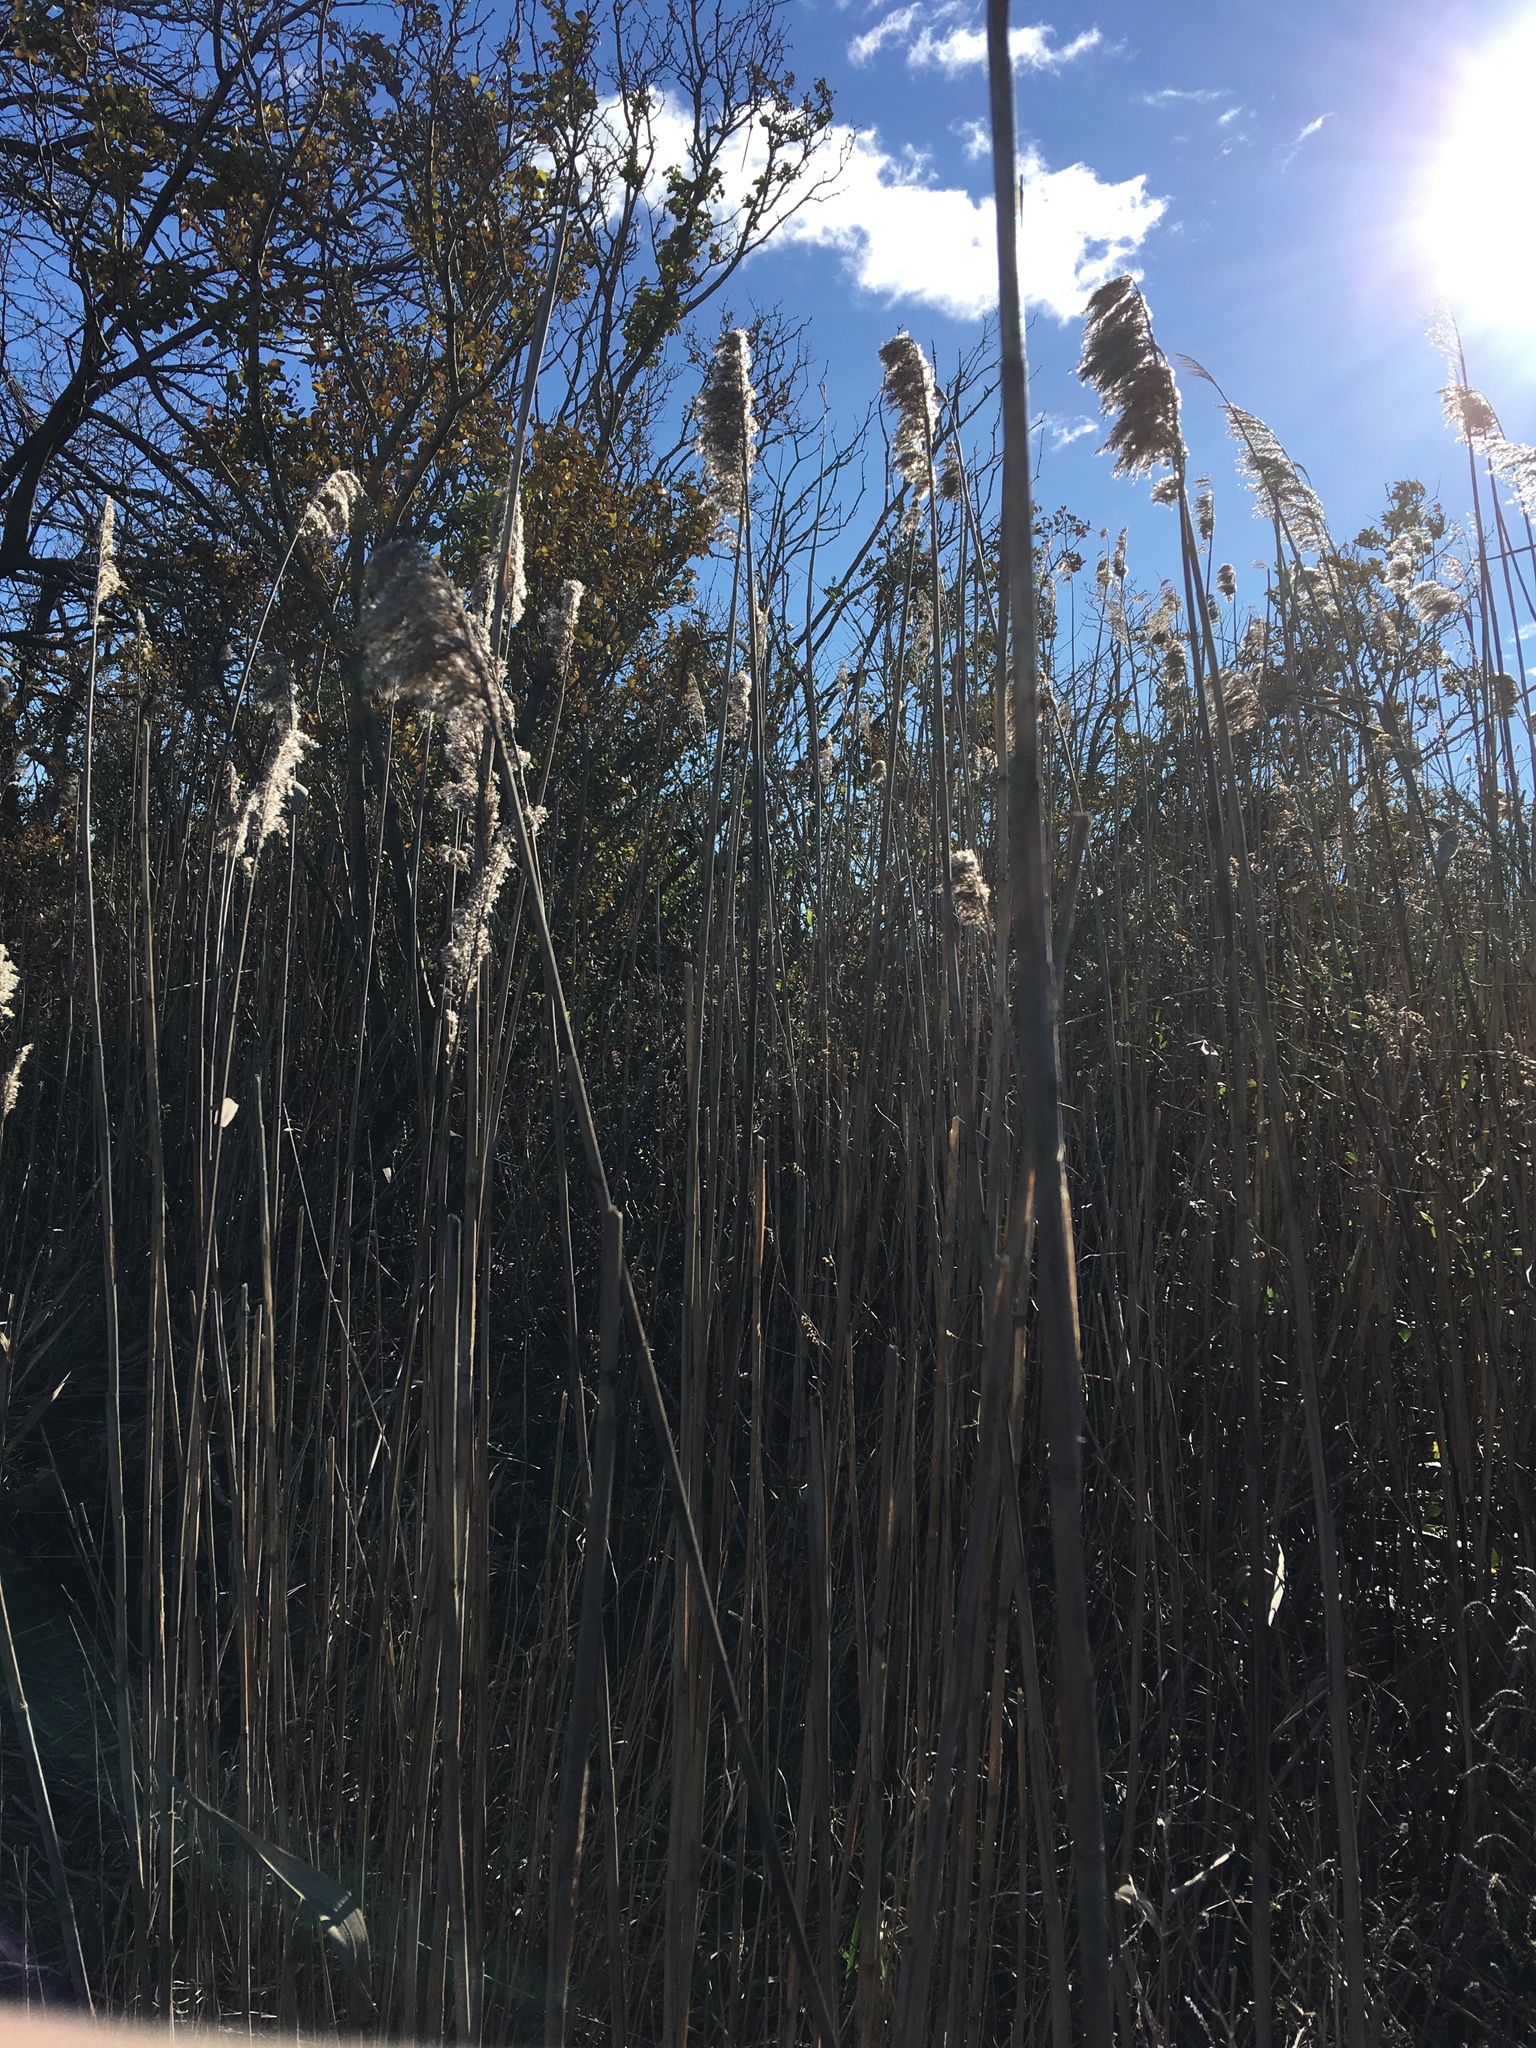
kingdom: Plantae
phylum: Tracheophyta
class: Liliopsida
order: Poales
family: Poaceae
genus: Phragmites
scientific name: Phragmites australis
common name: Common reed
